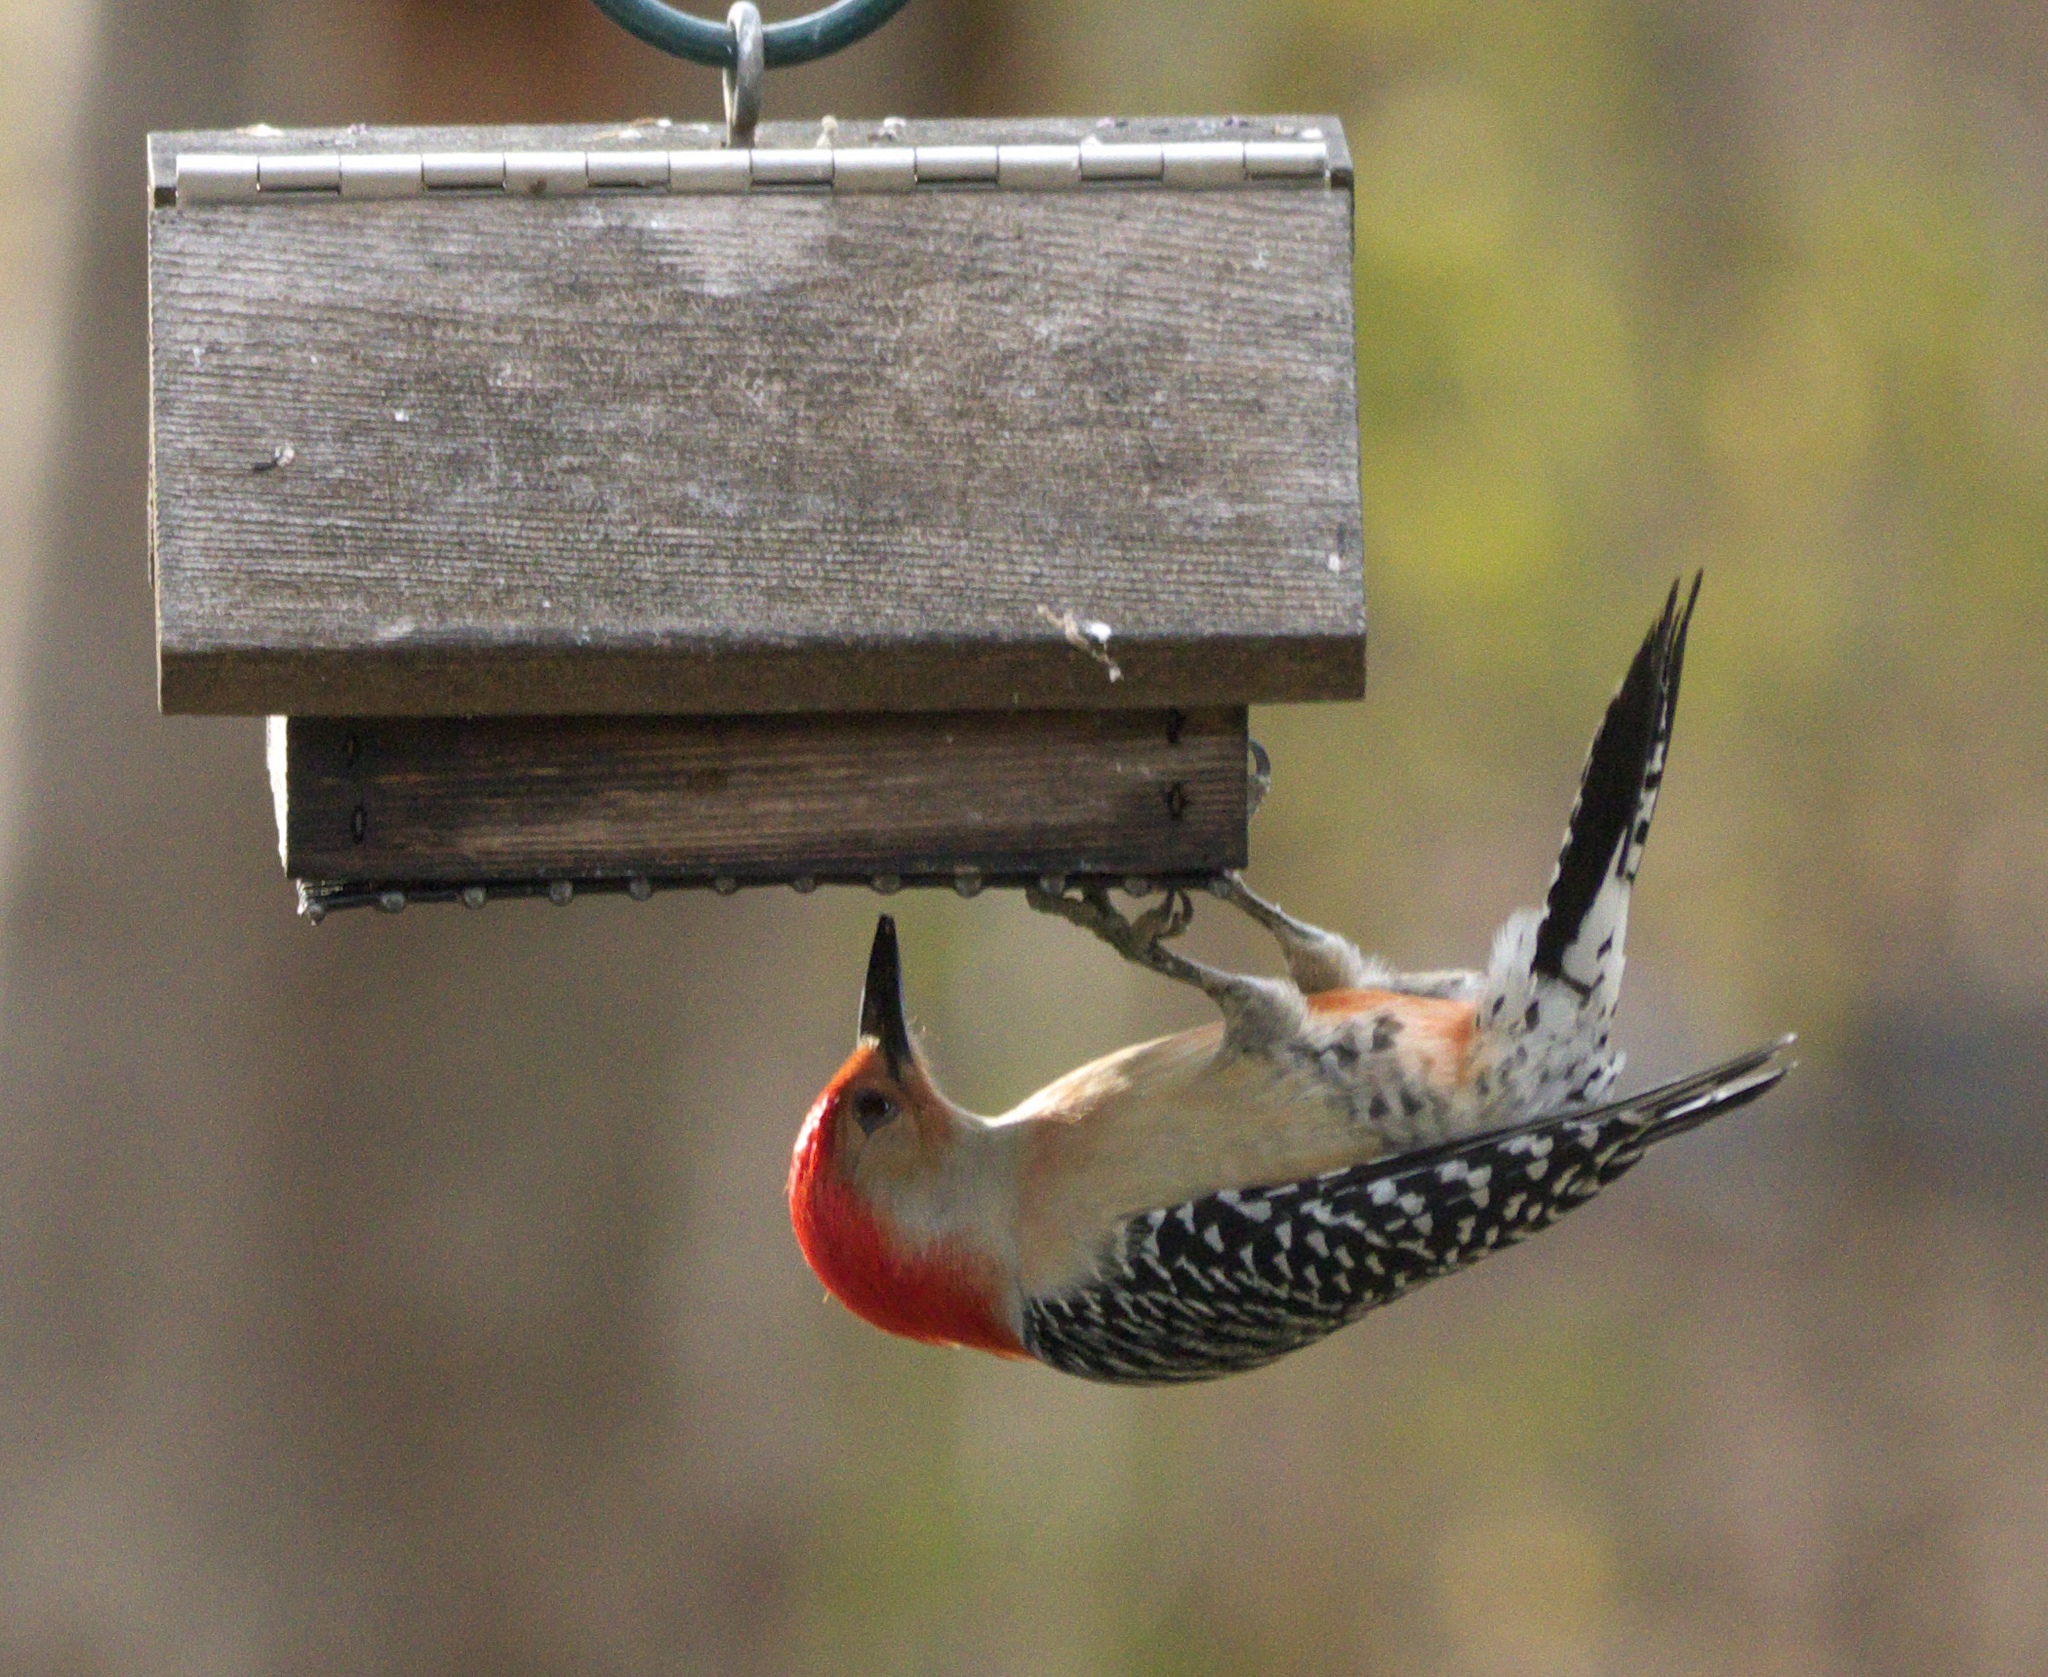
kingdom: Animalia
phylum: Chordata
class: Aves
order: Piciformes
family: Picidae
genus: Melanerpes
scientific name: Melanerpes carolinus
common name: Red-bellied woodpecker
